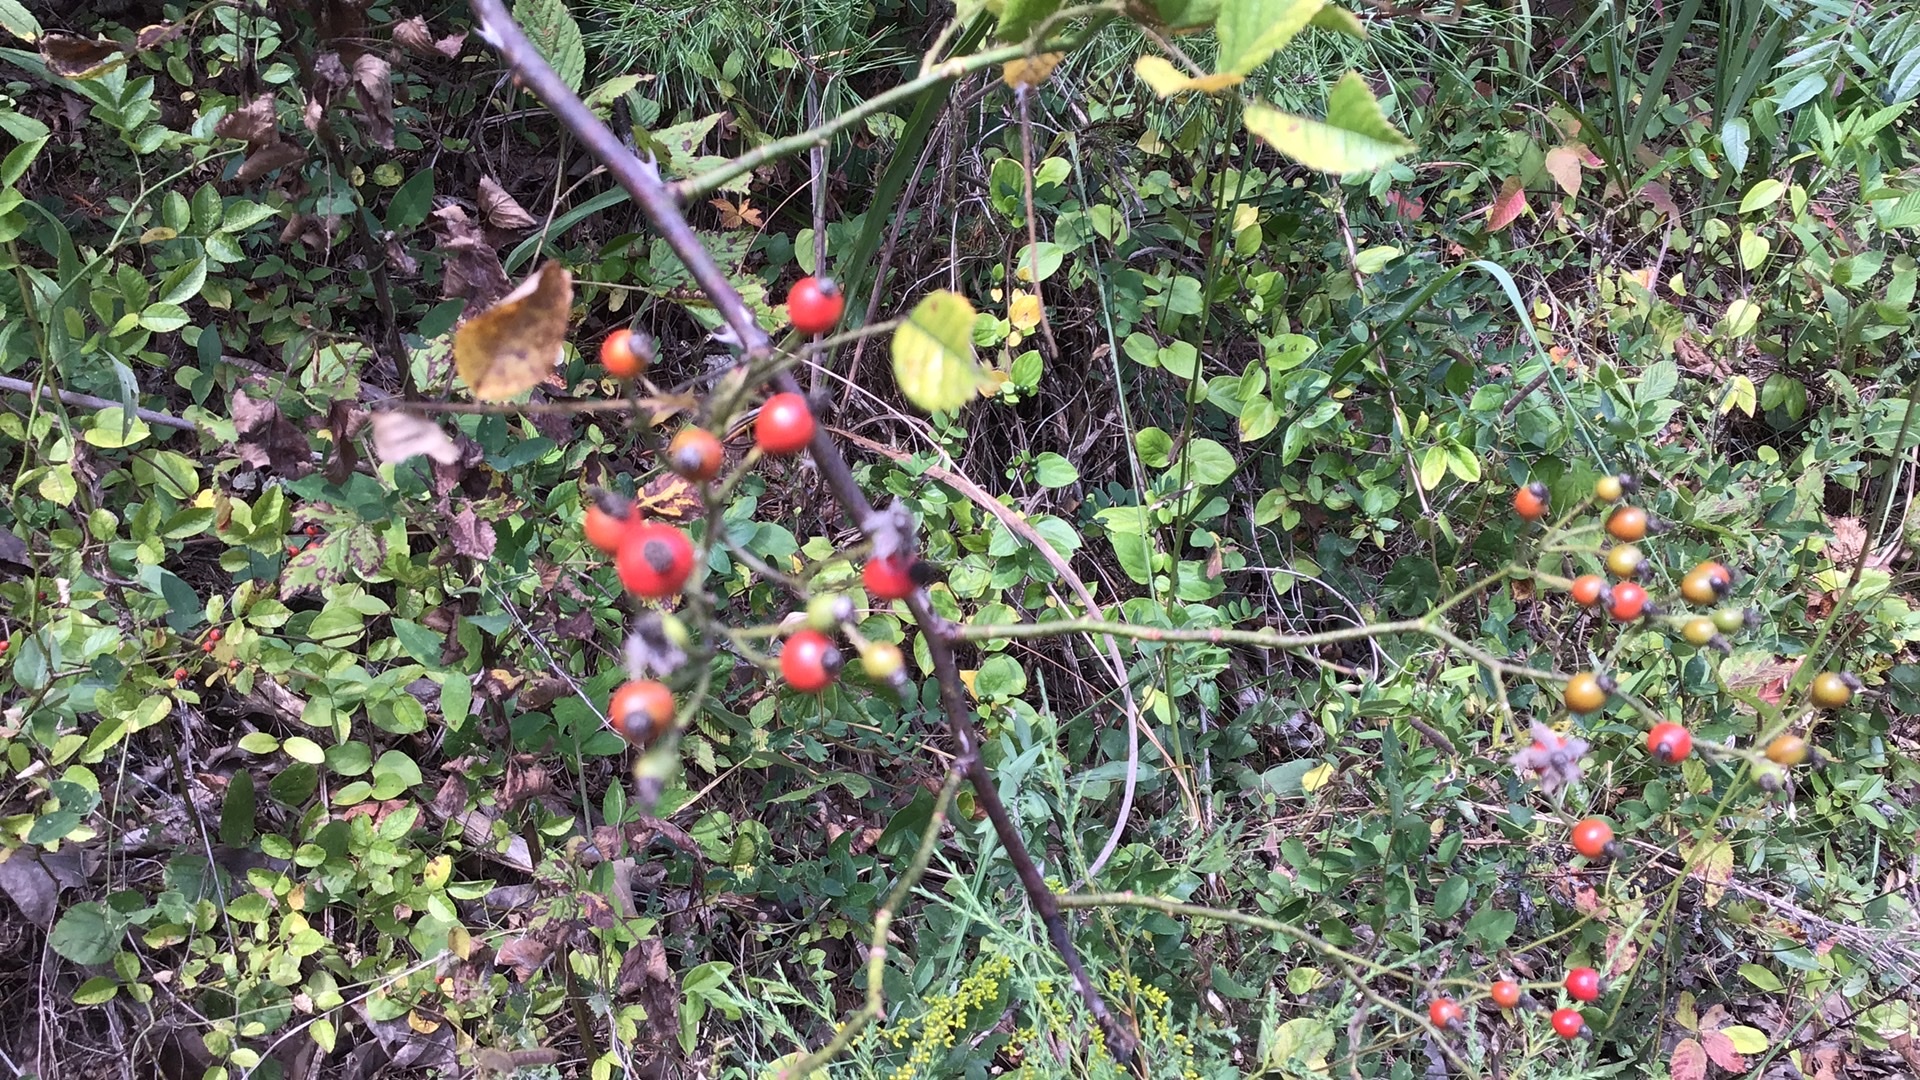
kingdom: Plantae
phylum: Tracheophyta
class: Magnoliopsida
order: Rosales
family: Rosaceae
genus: Rosa
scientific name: Rosa multiflora
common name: Multiflora rose
